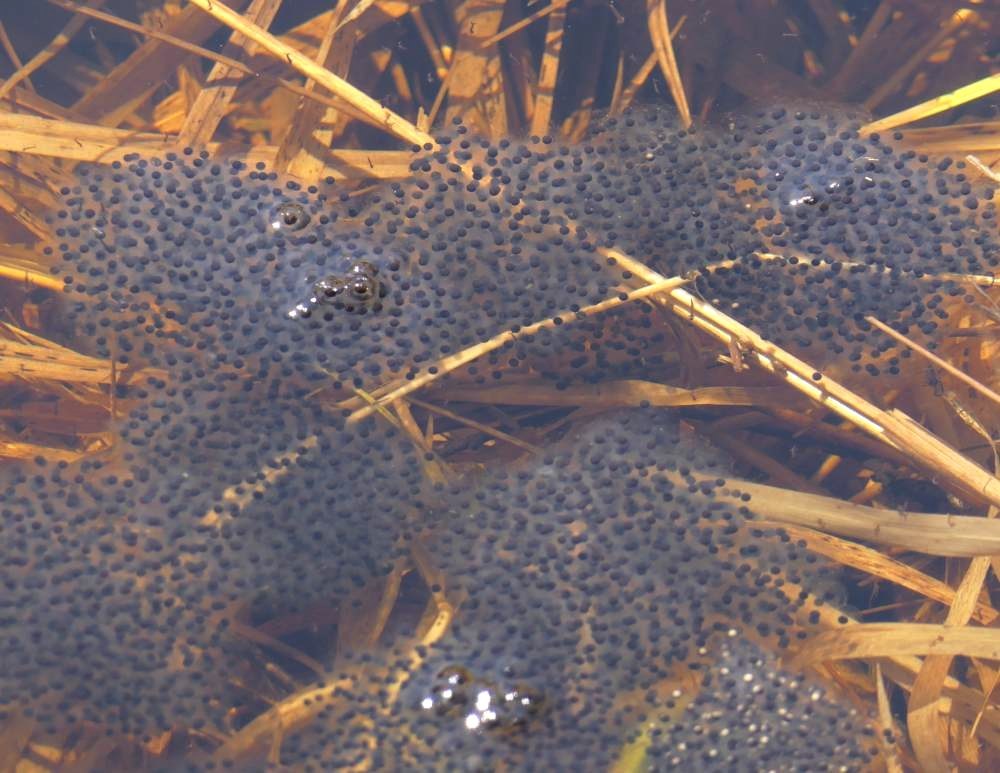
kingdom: Animalia
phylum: Chordata
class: Amphibia
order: Anura
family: Ranidae
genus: Lithobates
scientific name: Lithobates sylvaticus
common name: Wood frog
